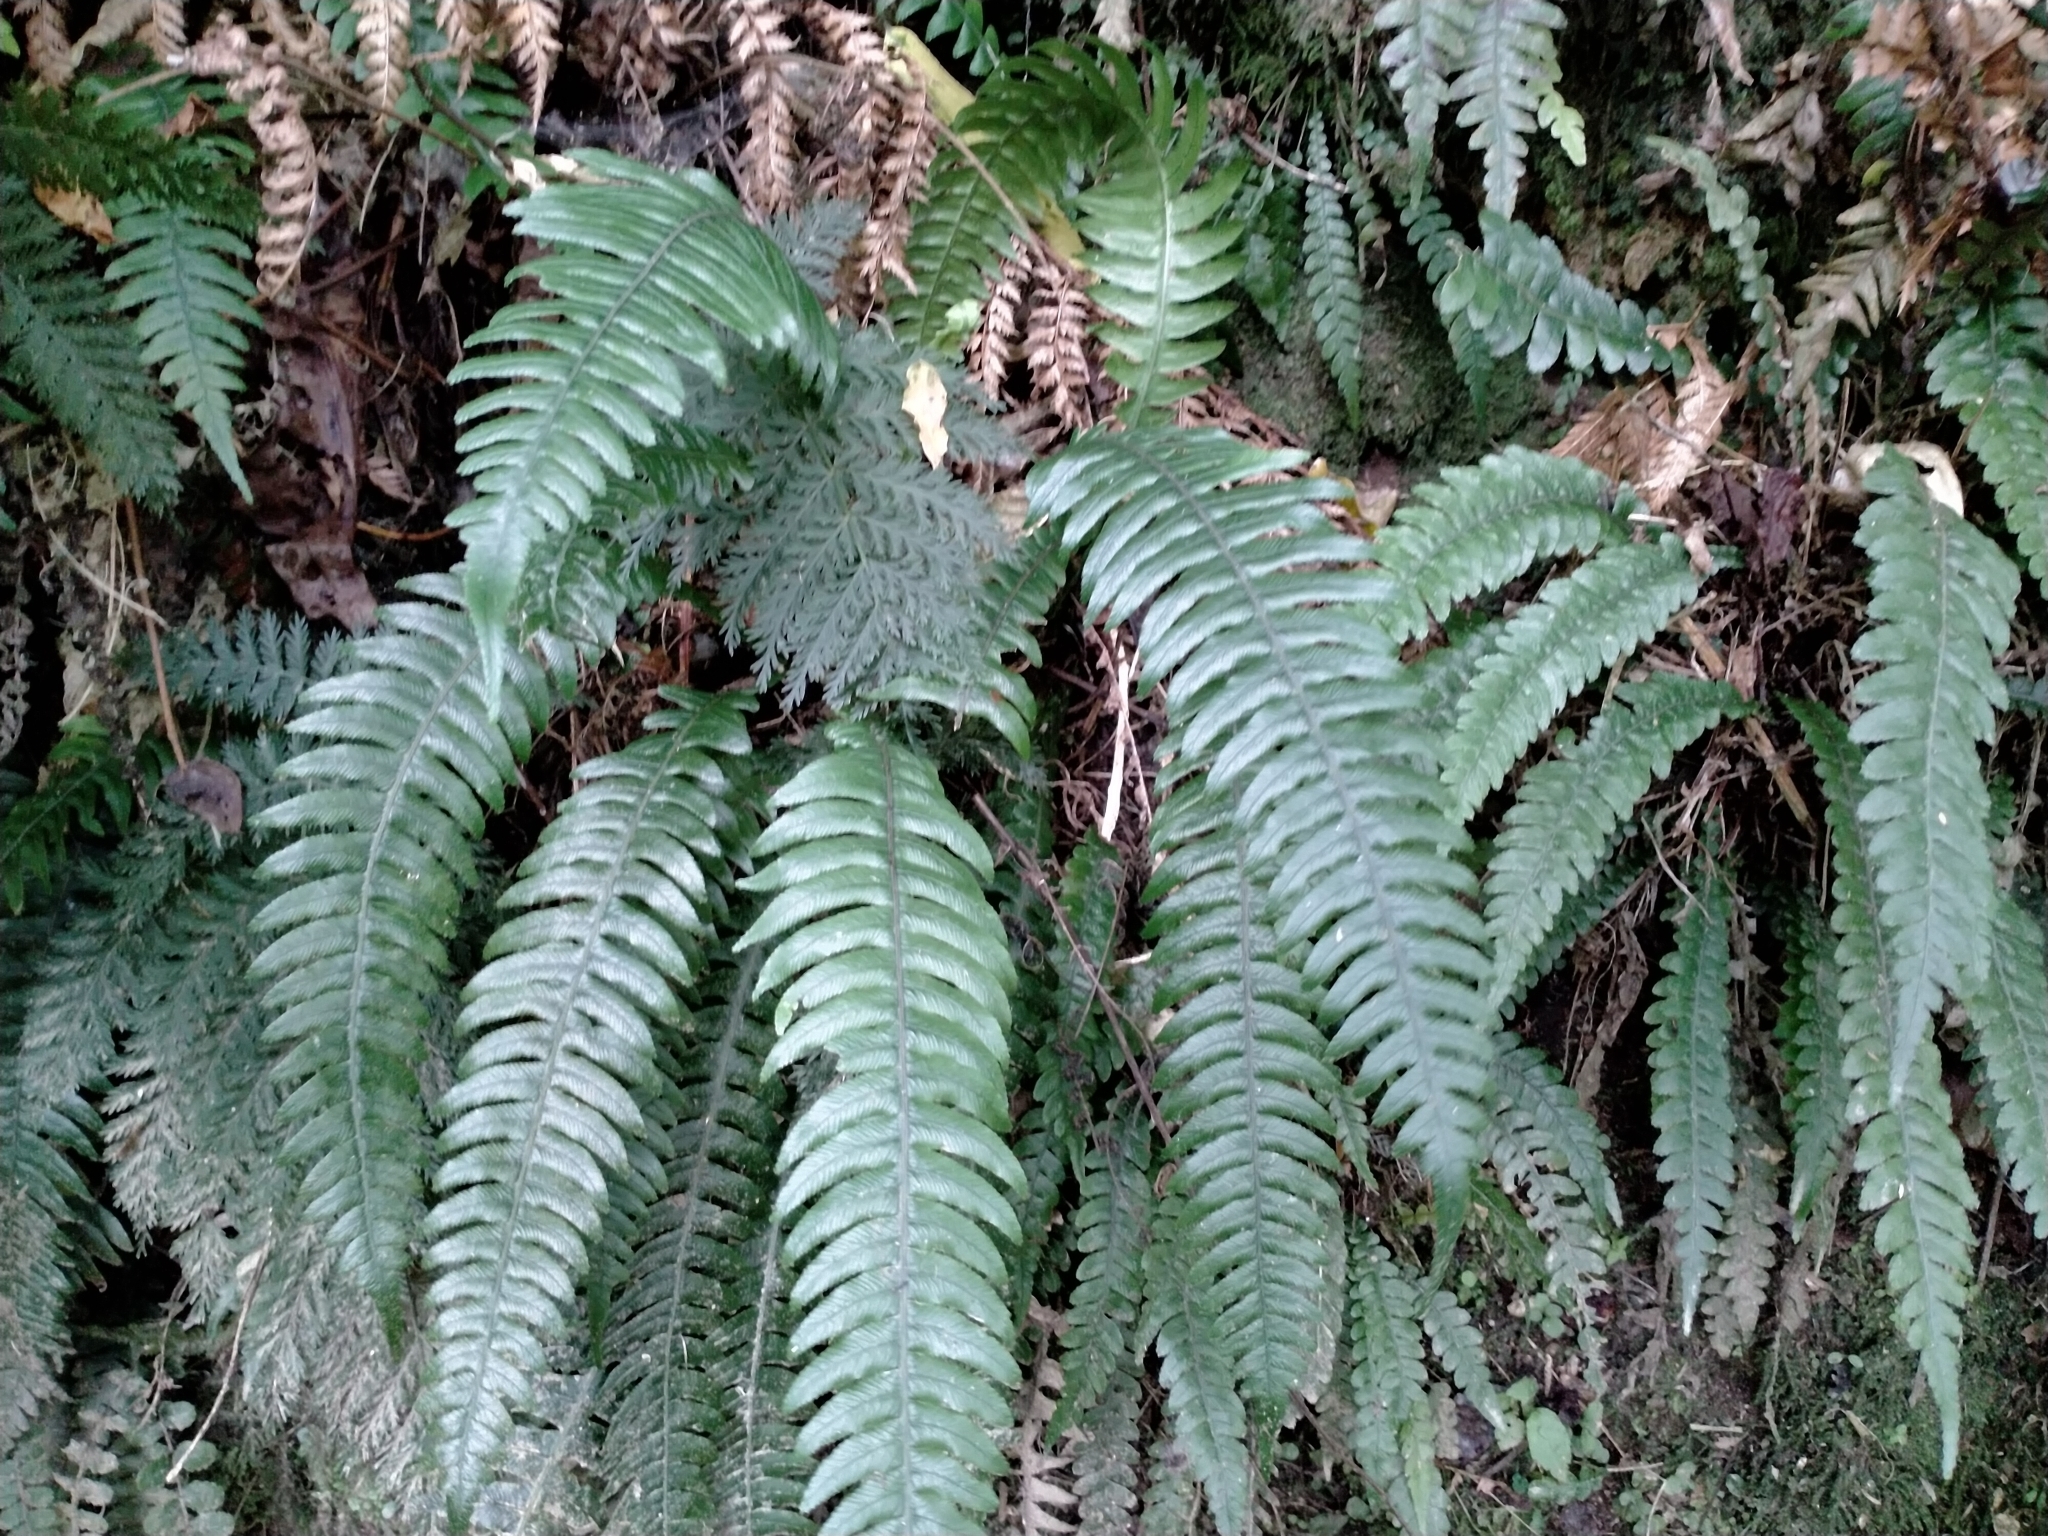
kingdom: Plantae
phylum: Tracheophyta
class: Polypodiopsida
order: Polypodiales
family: Blechnaceae
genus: Austroblechnum
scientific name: Austroblechnum lanceolatum
